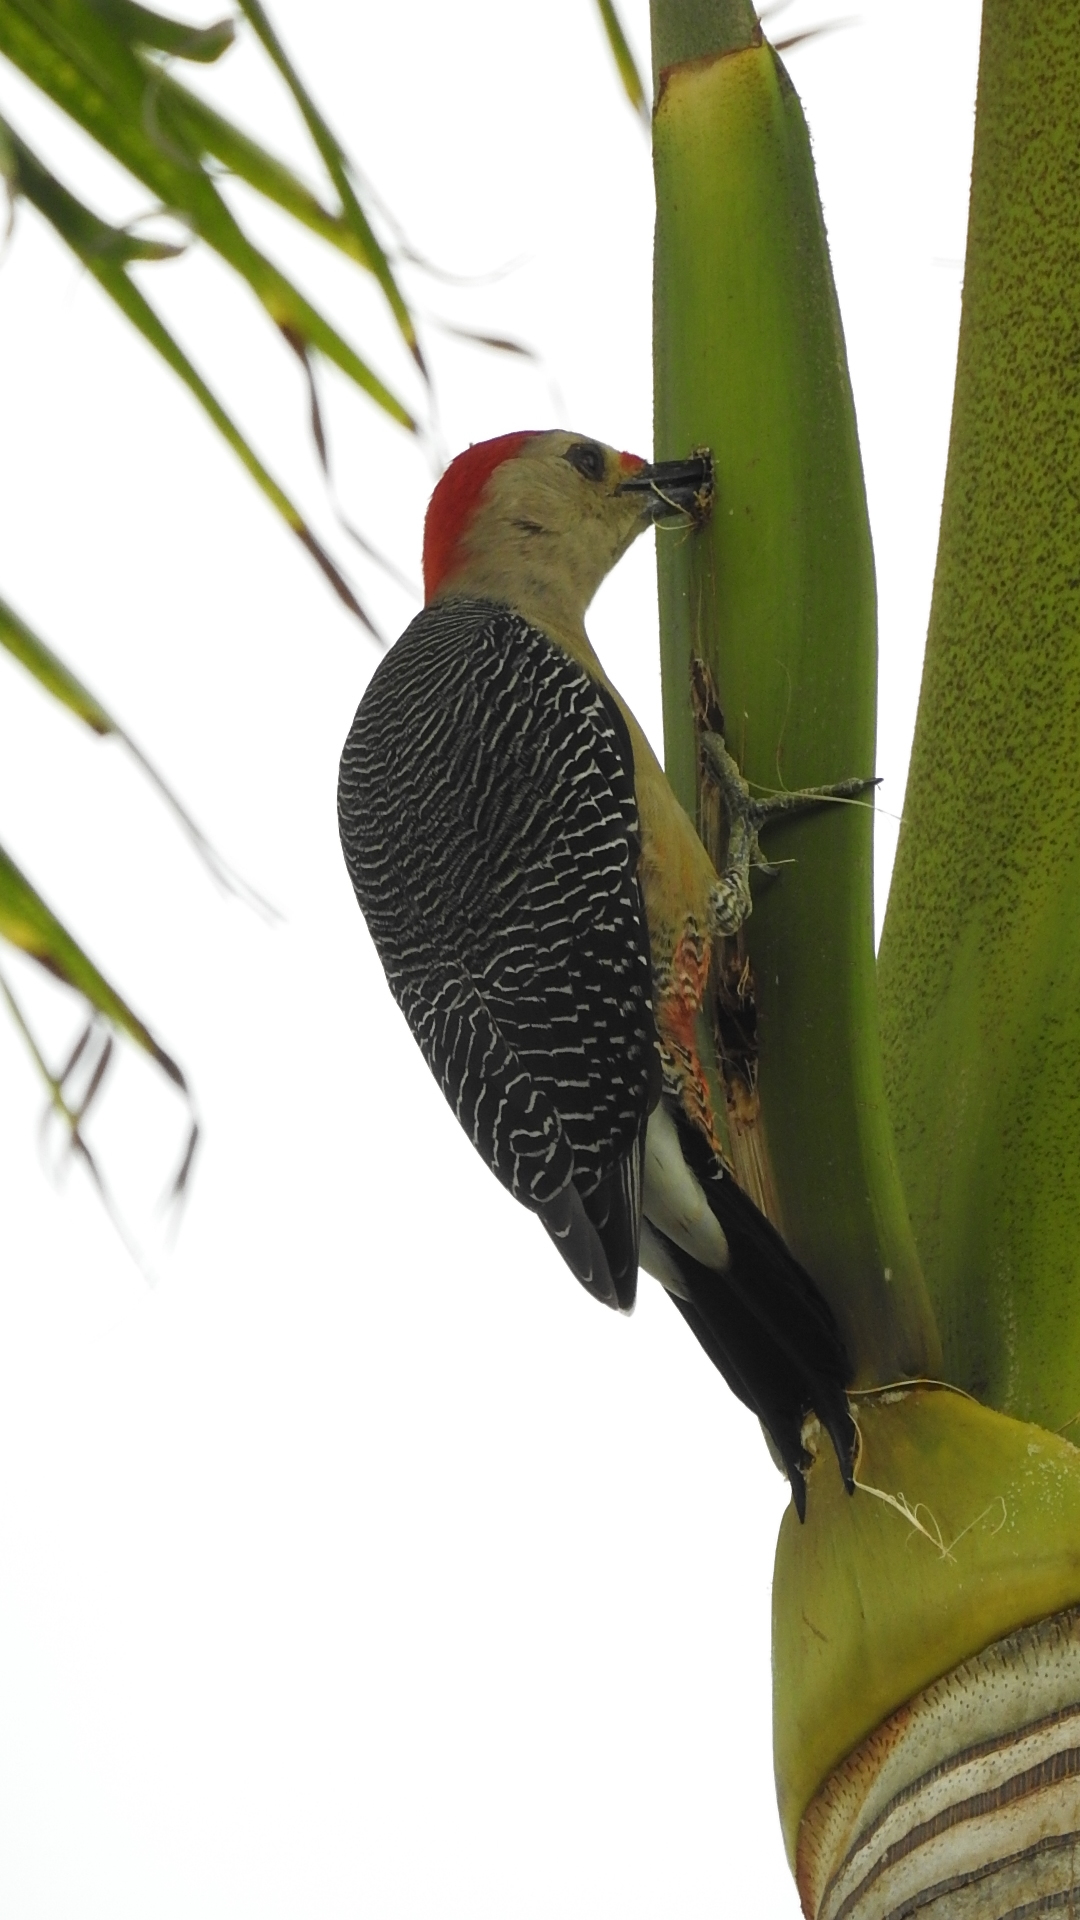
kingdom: Animalia
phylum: Chordata
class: Aves
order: Piciformes
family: Picidae
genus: Melanerpes
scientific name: Melanerpes aurifrons
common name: Golden-fronted woodpecker
